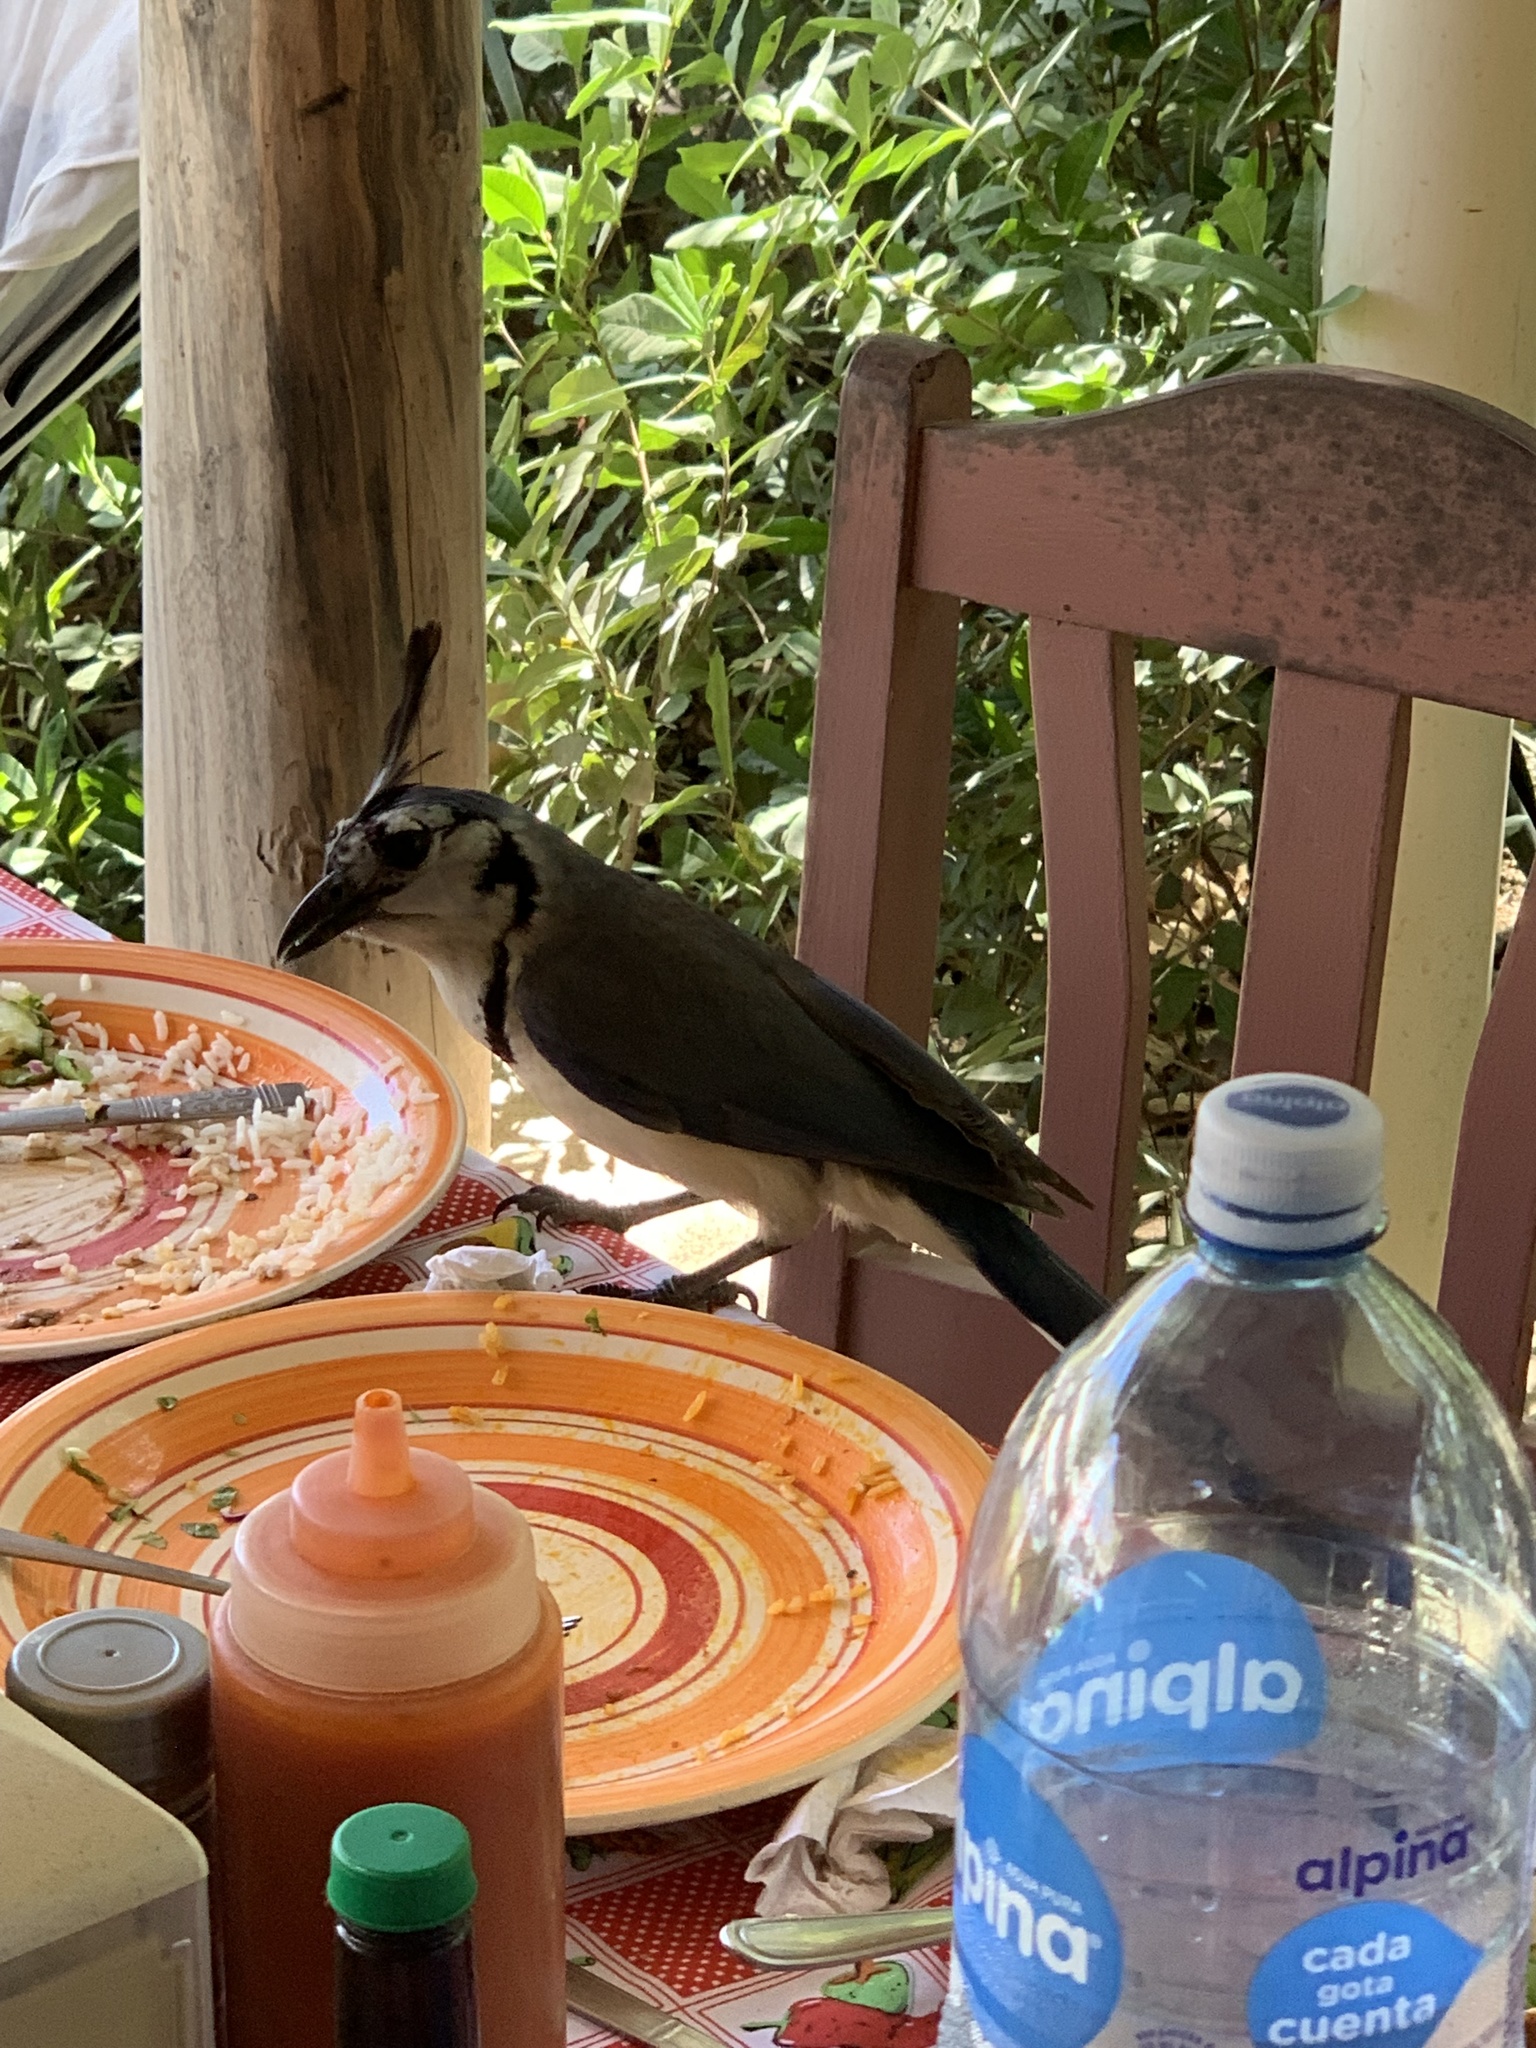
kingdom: Animalia
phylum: Chordata
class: Aves
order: Passeriformes
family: Corvidae
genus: Calocitta
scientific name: Calocitta formosa
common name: White-throated magpie-jay
